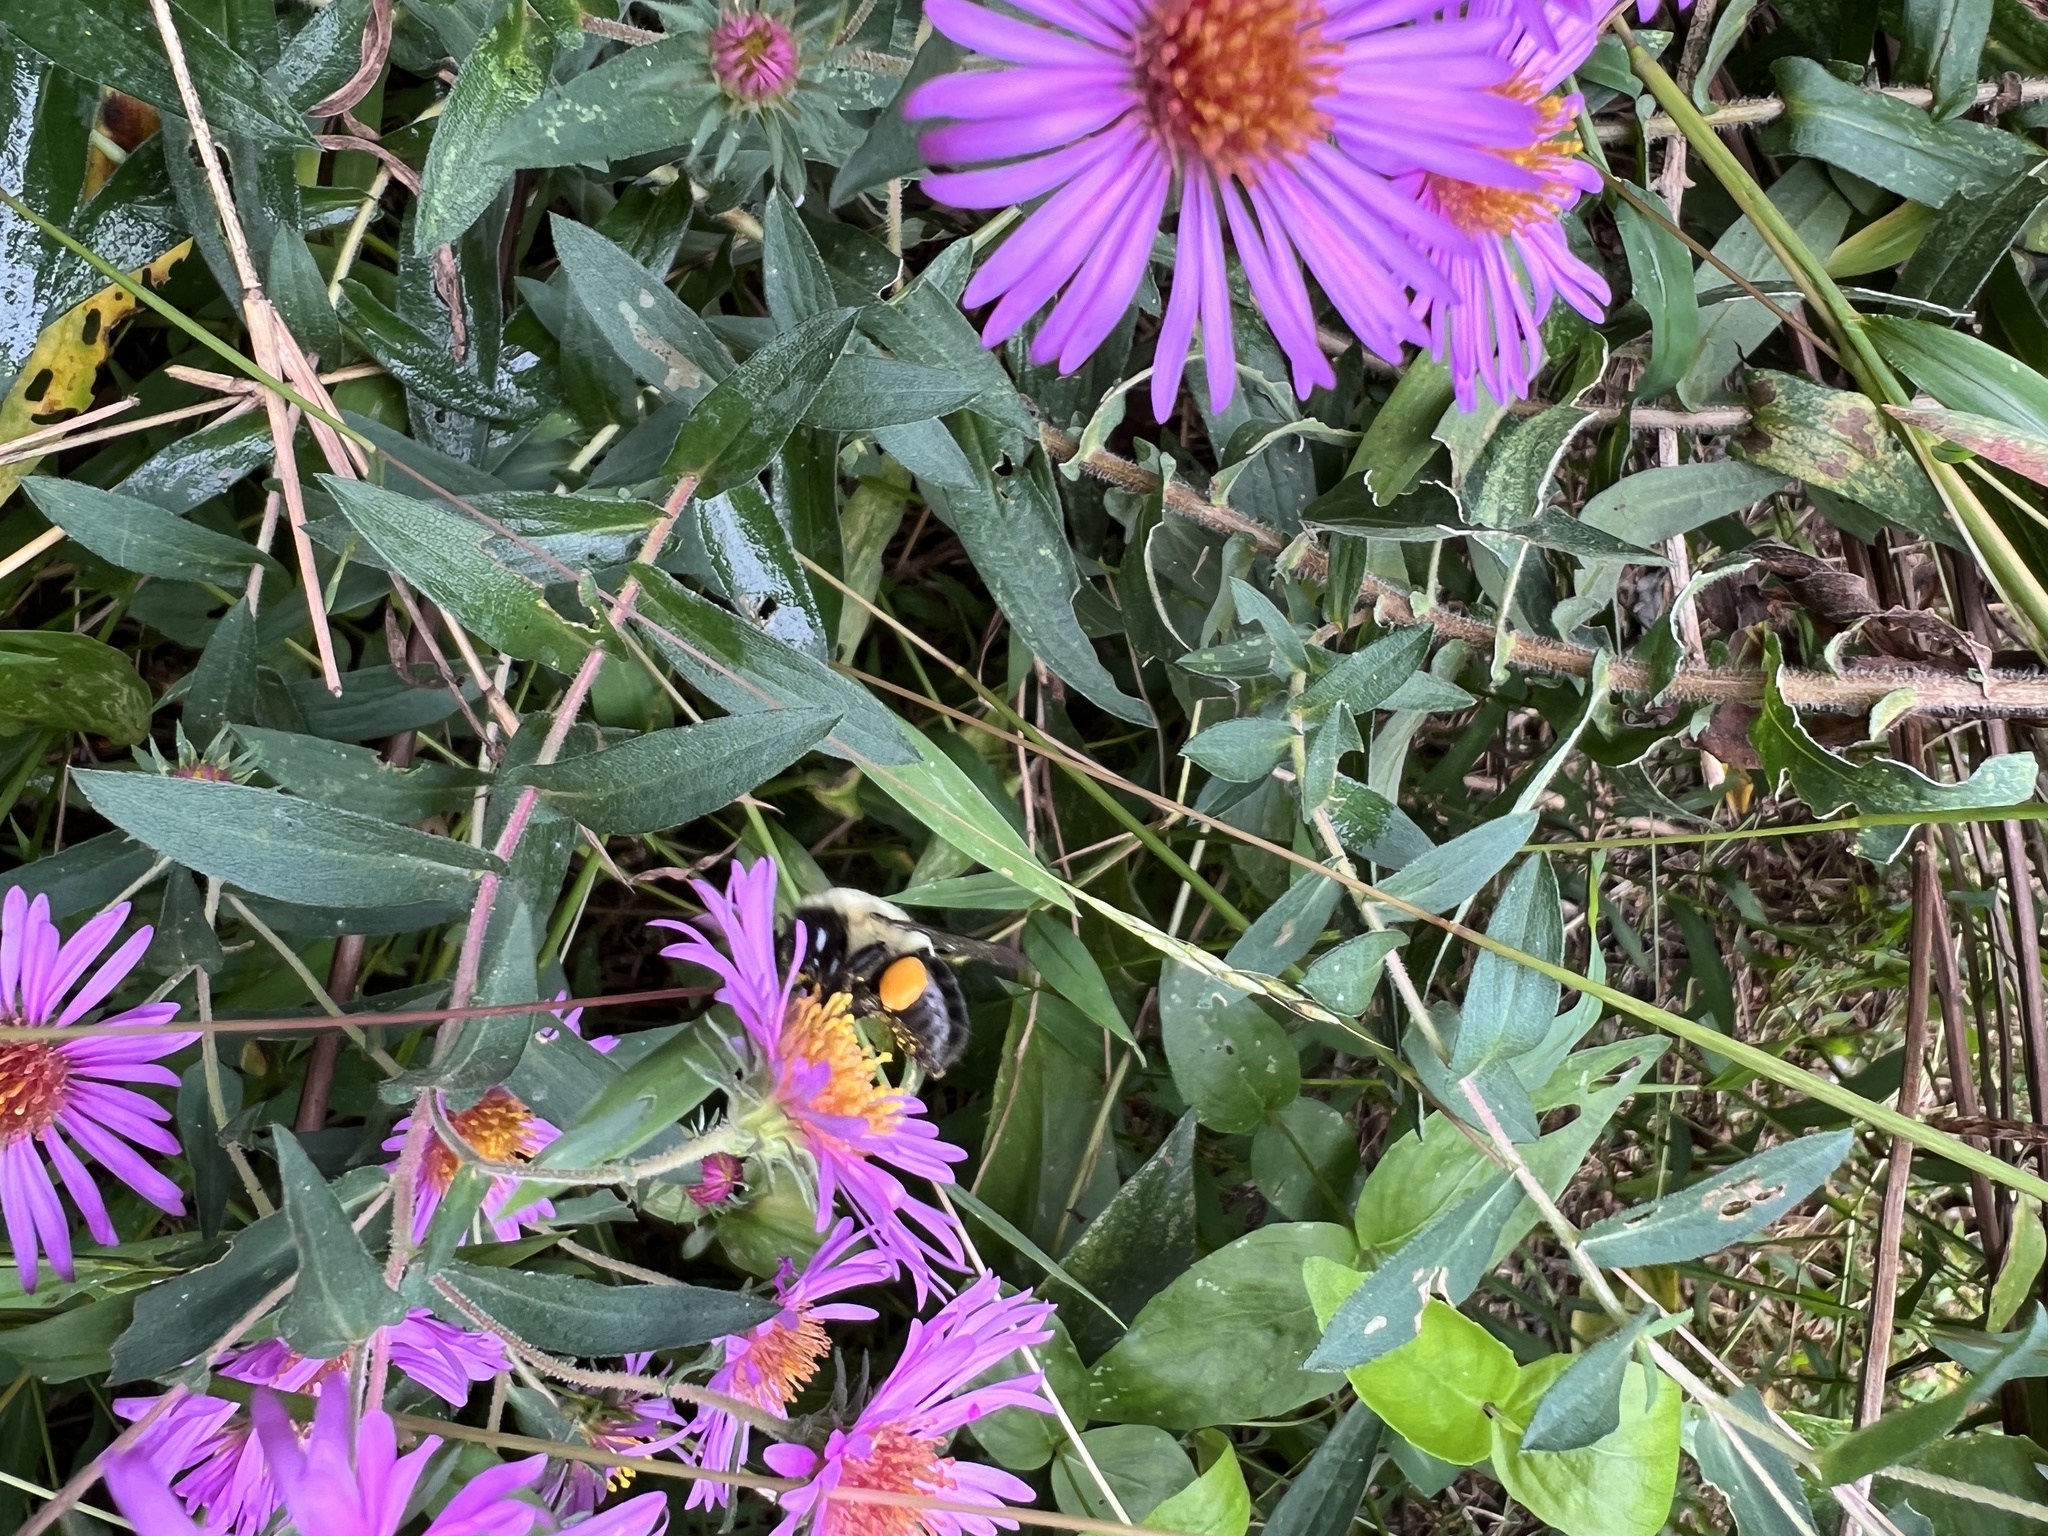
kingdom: Animalia
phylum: Arthropoda
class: Insecta
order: Hymenoptera
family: Apidae
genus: Bombus
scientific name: Bombus impatiens
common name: Common eastern bumble bee
